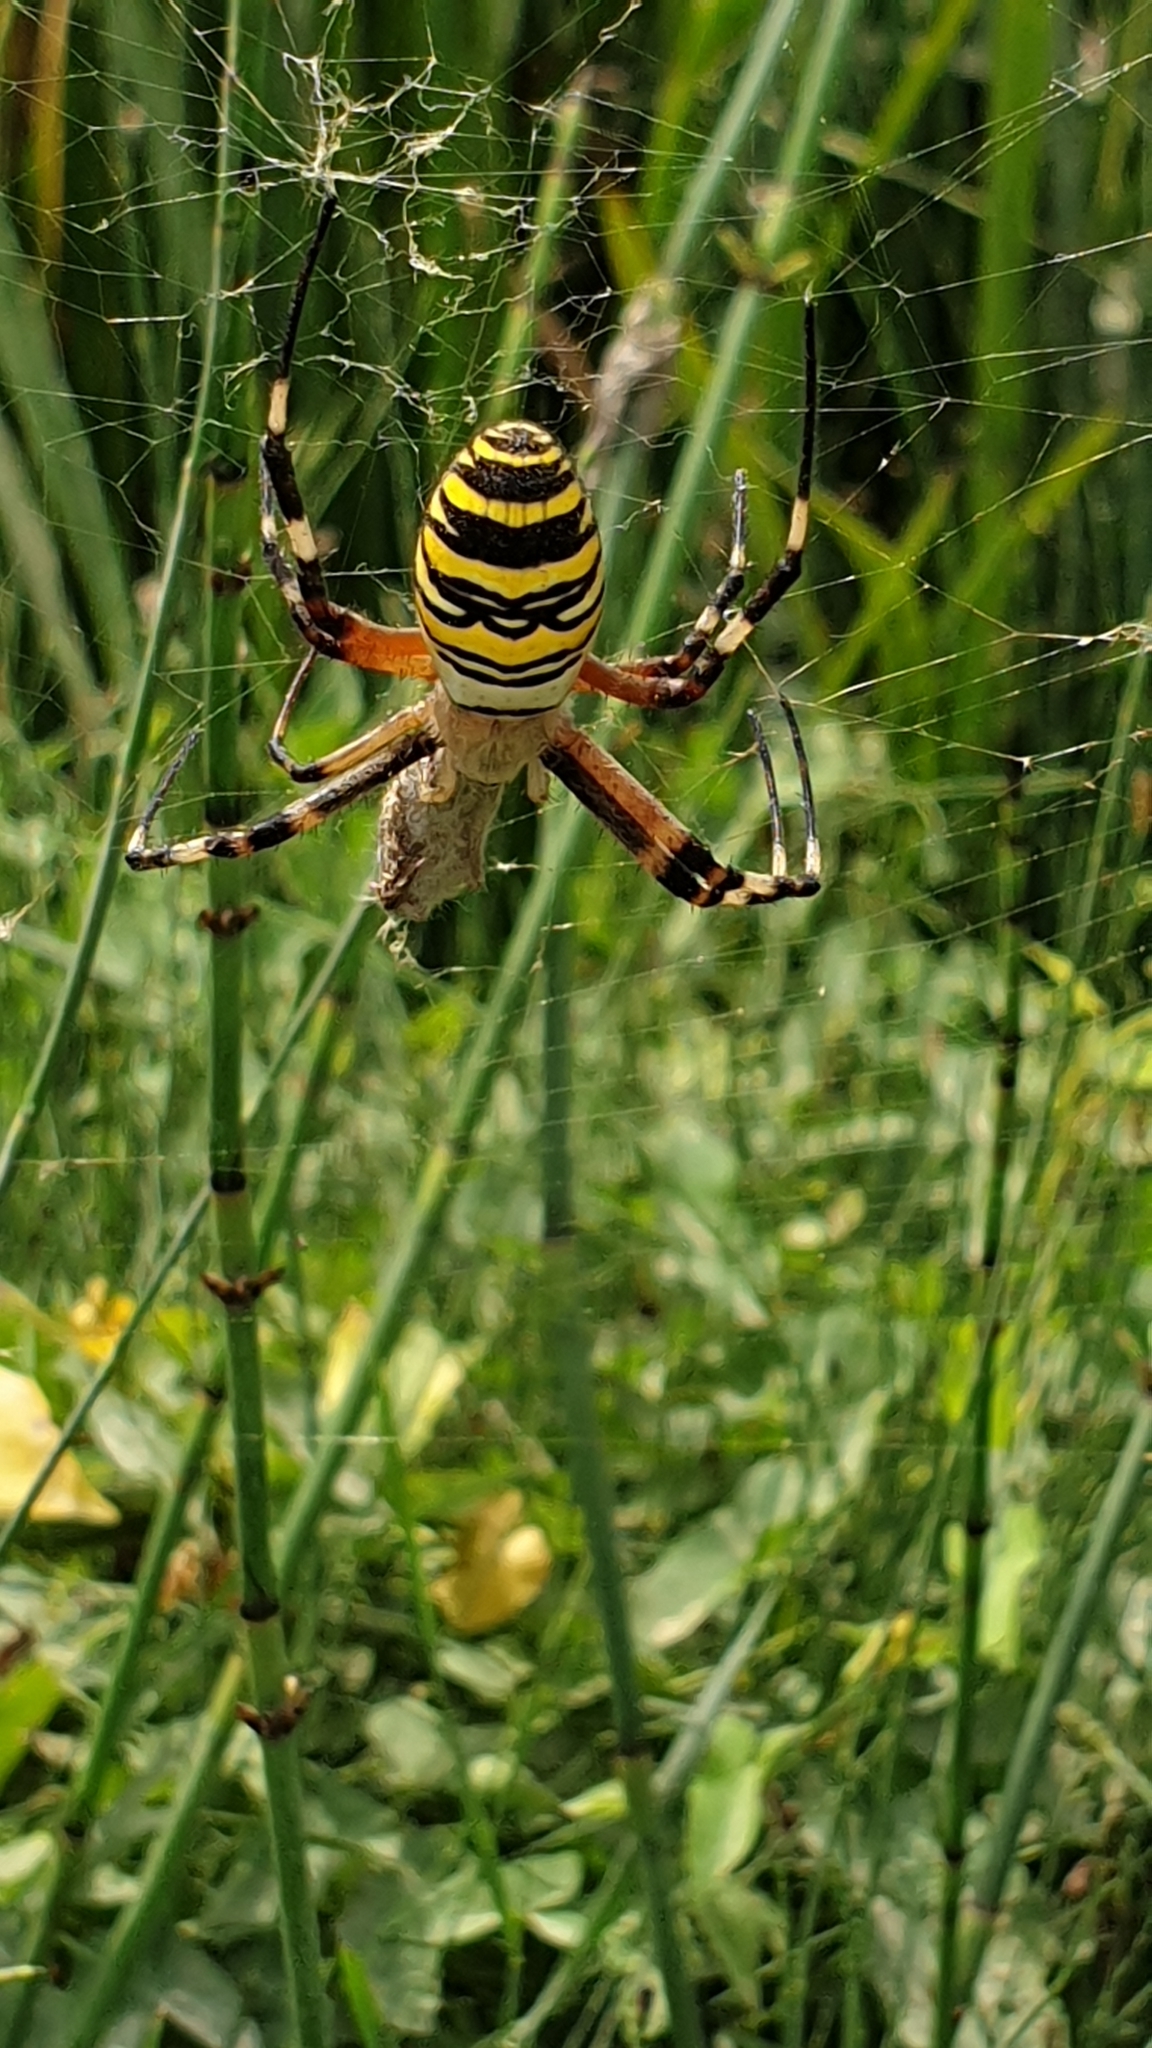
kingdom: Animalia
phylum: Arthropoda
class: Arachnida
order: Araneae
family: Araneidae
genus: Argiope
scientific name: Argiope bruennichi
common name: Wasp spider
